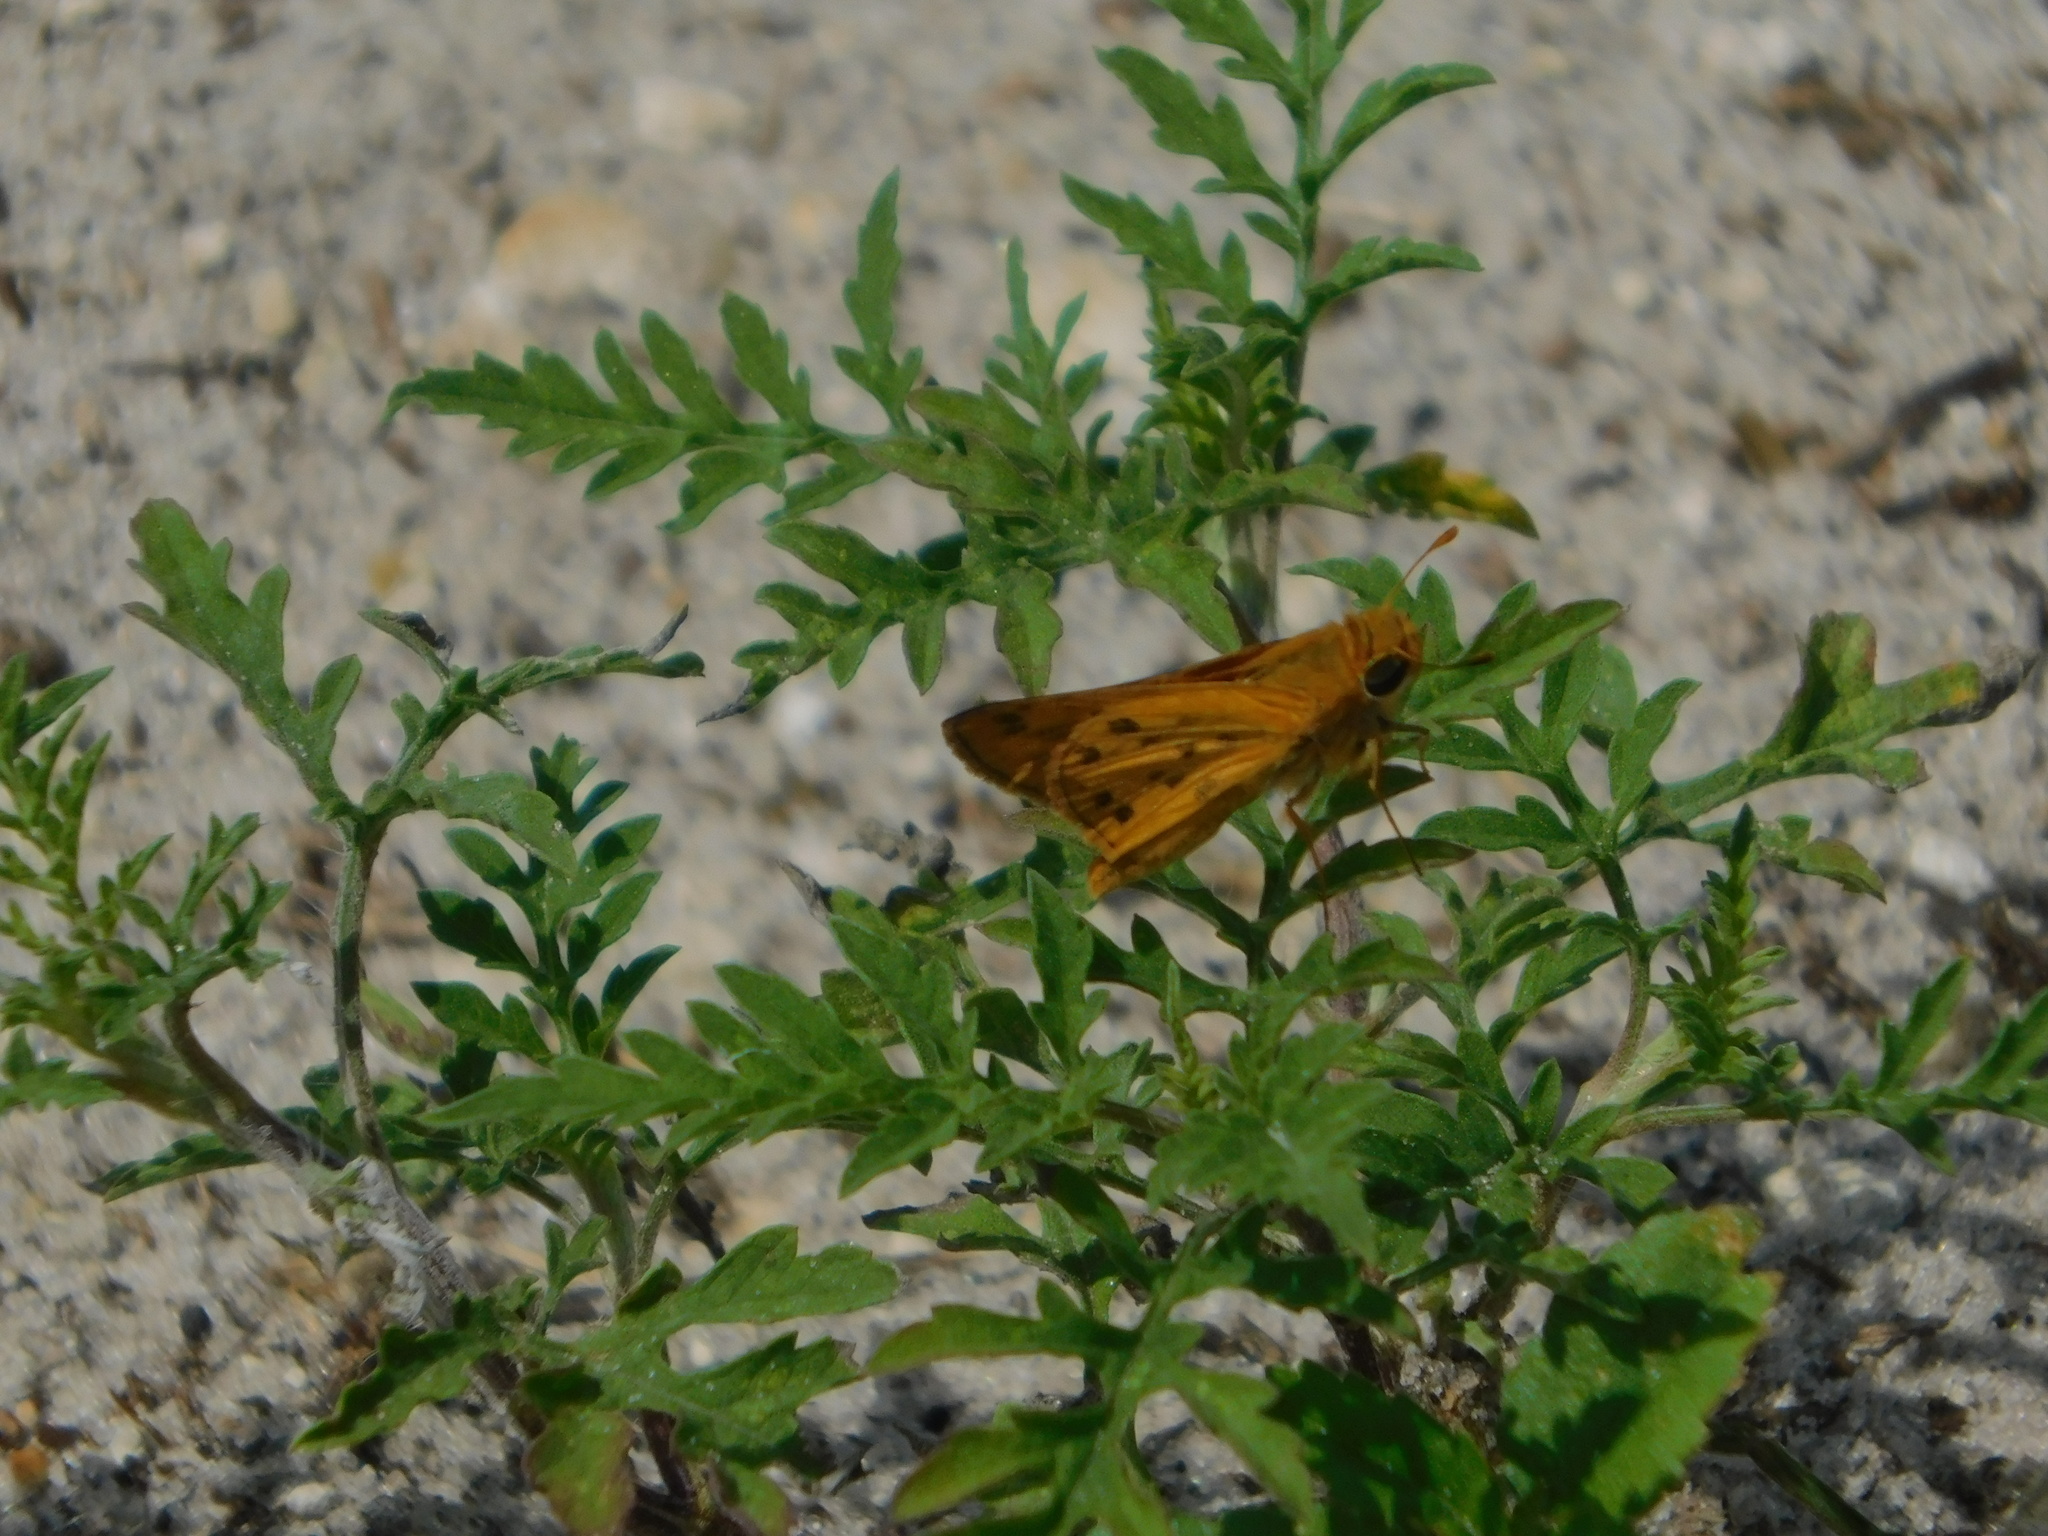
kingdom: Animalia
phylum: Arthropoda
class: Insecta
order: Lepidoptera
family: Hesperiidae
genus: Hylephila
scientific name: Hylephila phyleus
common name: Fiery skipper
